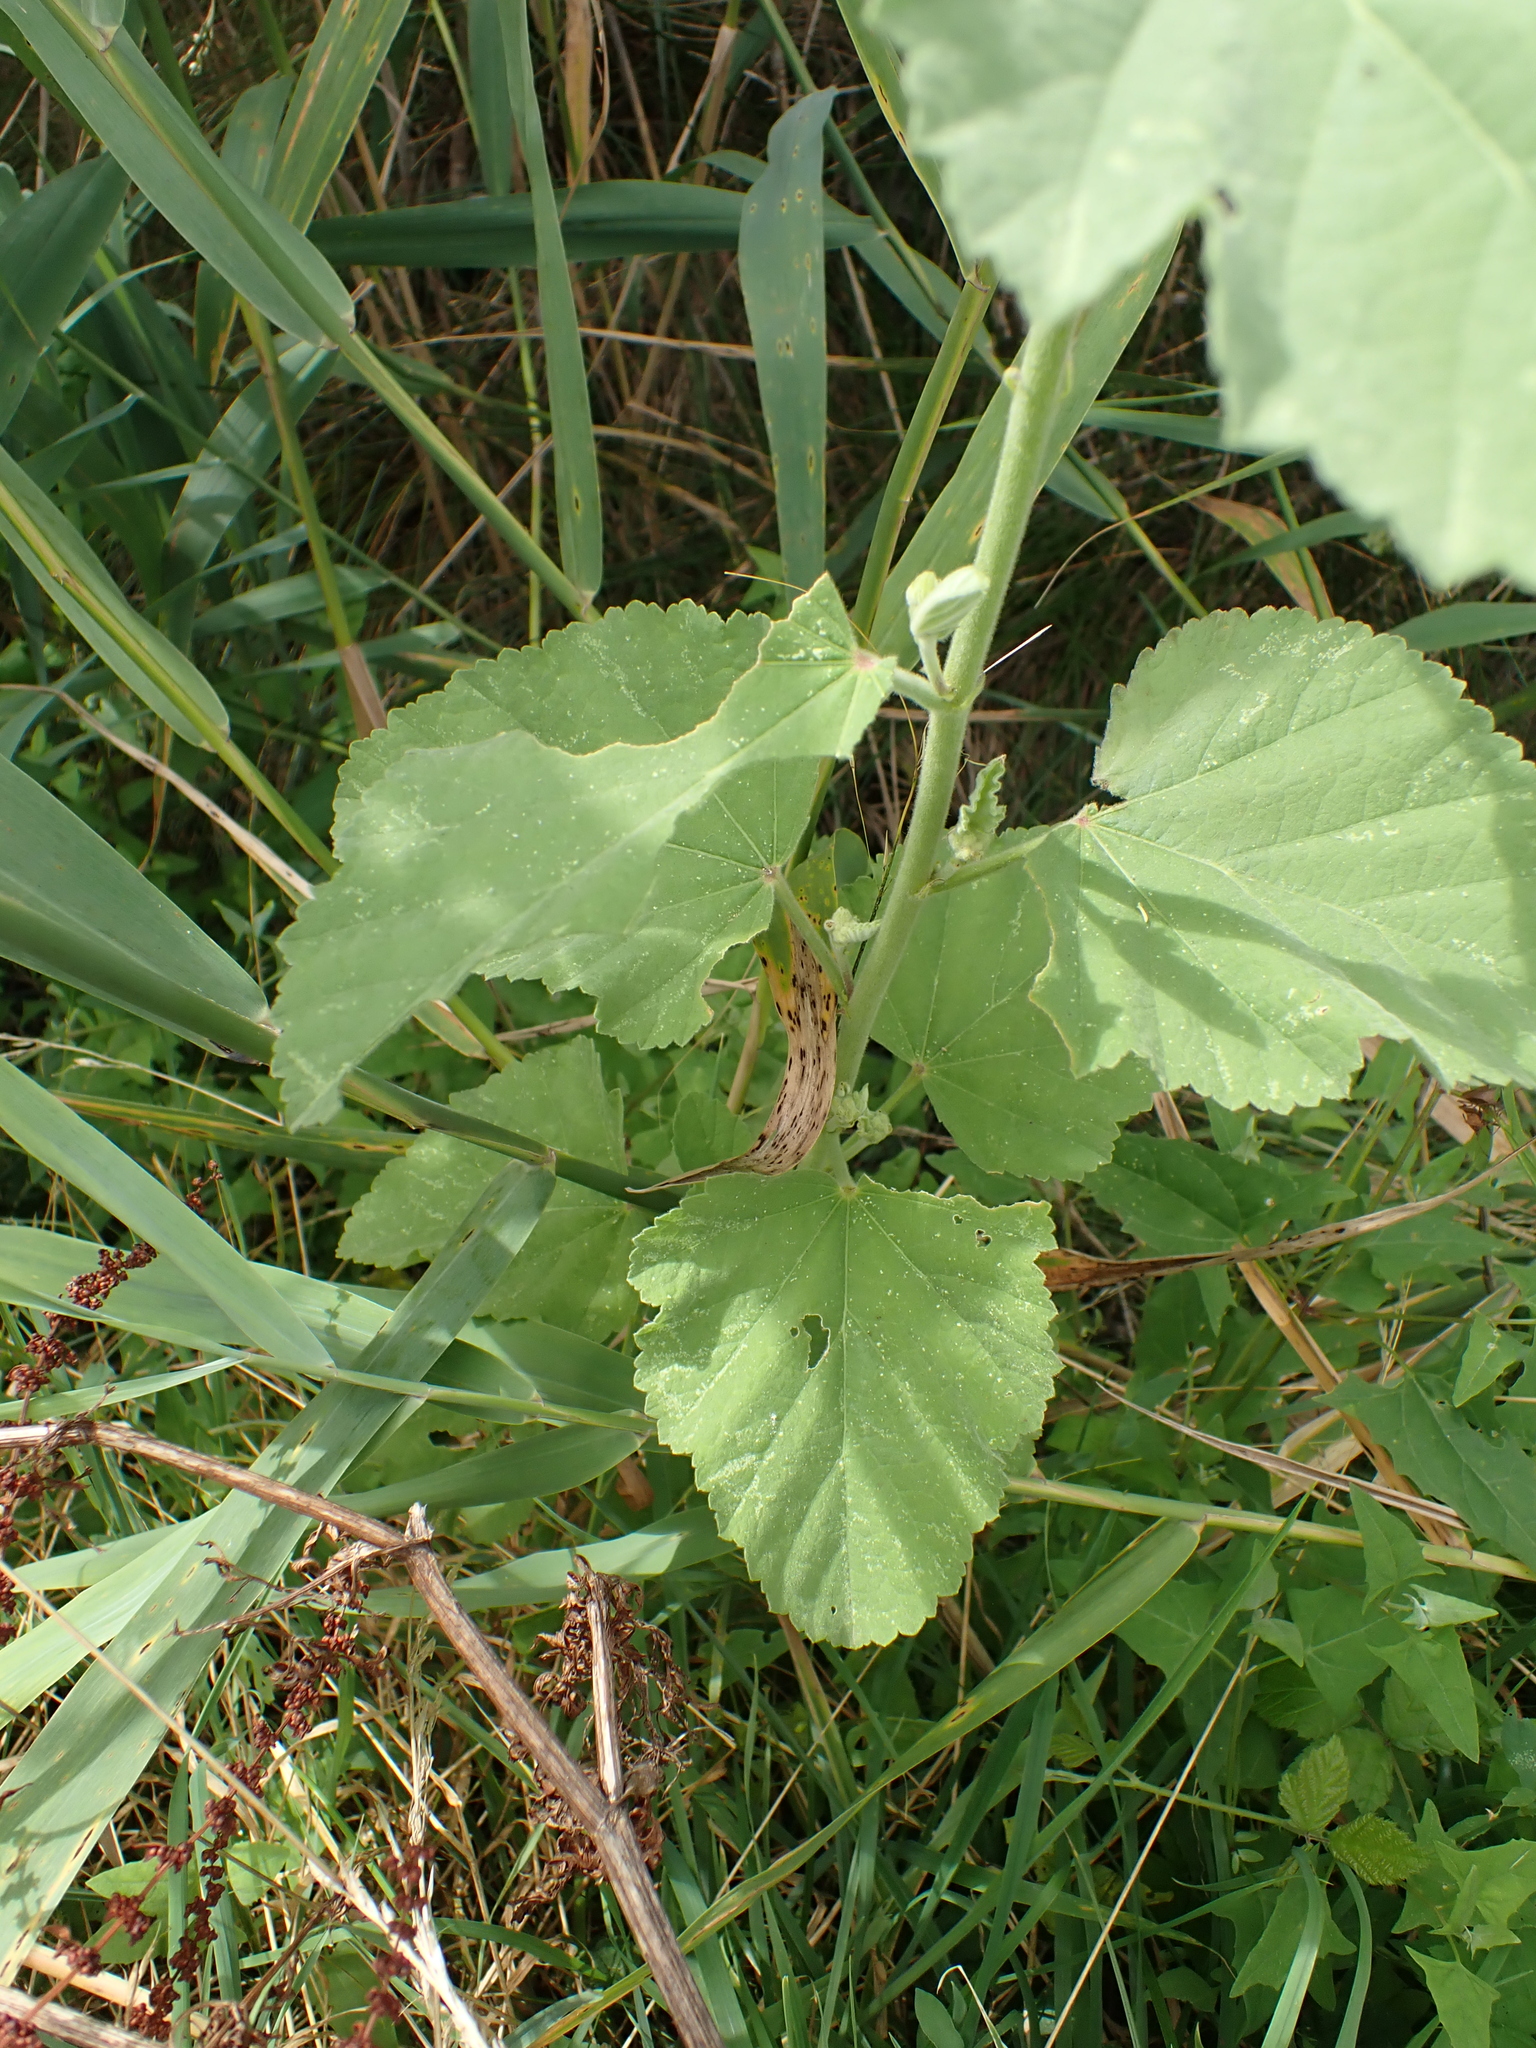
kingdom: Plantae
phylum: Tracheophyta
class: Magnoliopsida
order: Malvales
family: Malvaceae
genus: Althaea
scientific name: Althaea officinalis
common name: Marsh-mallow
